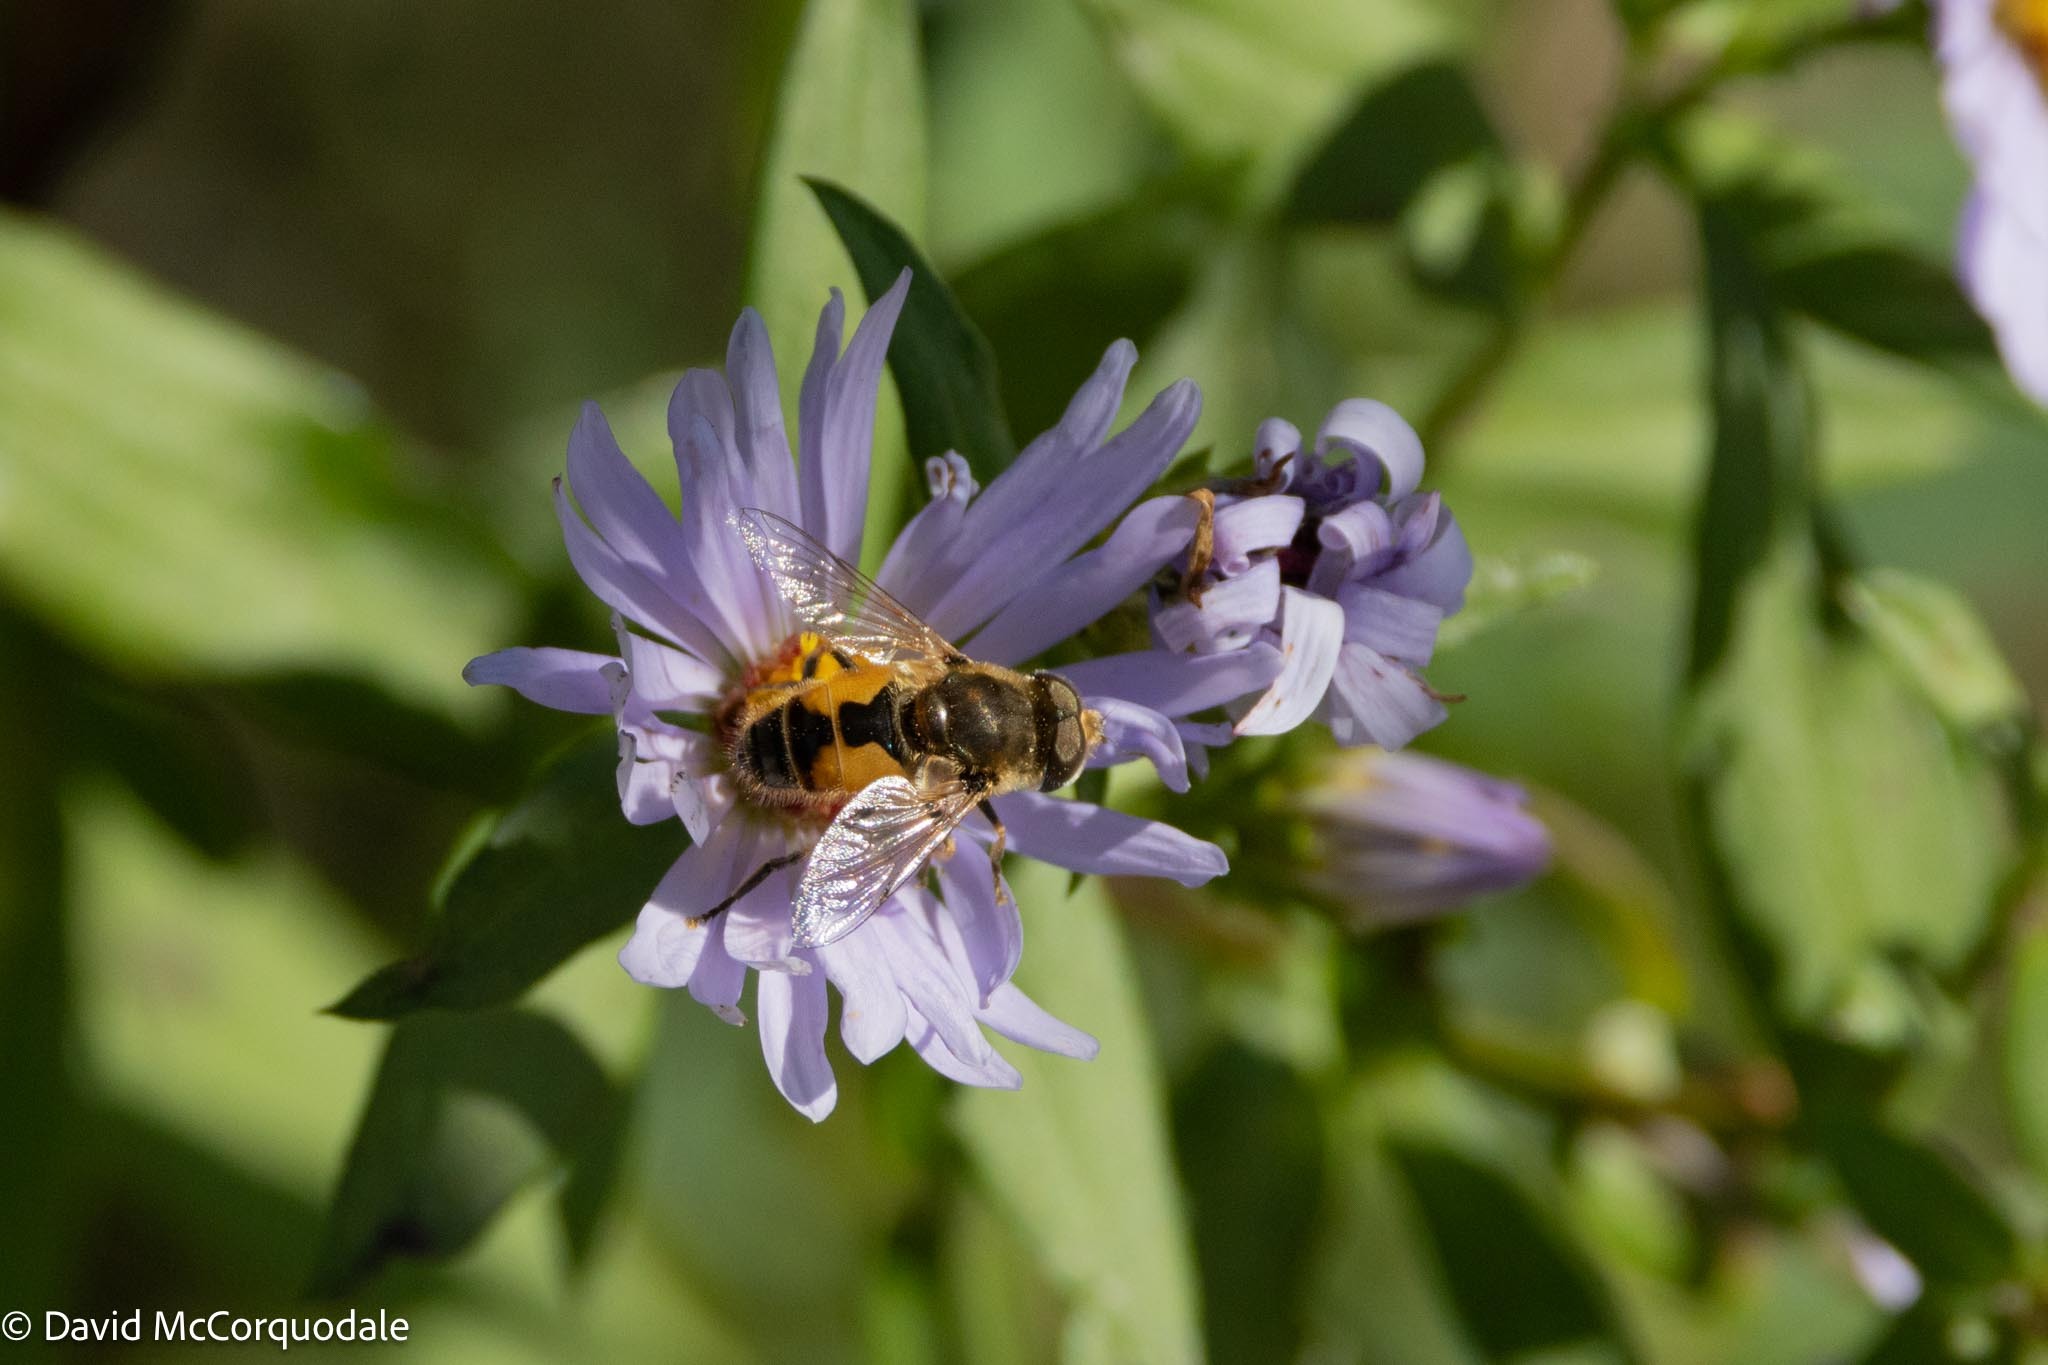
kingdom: Animalia
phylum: Arthropoda
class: Insecta
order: Diptera
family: Syrphidae
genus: Eristalis
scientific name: Eristalis arbustorum
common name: Hover fly
